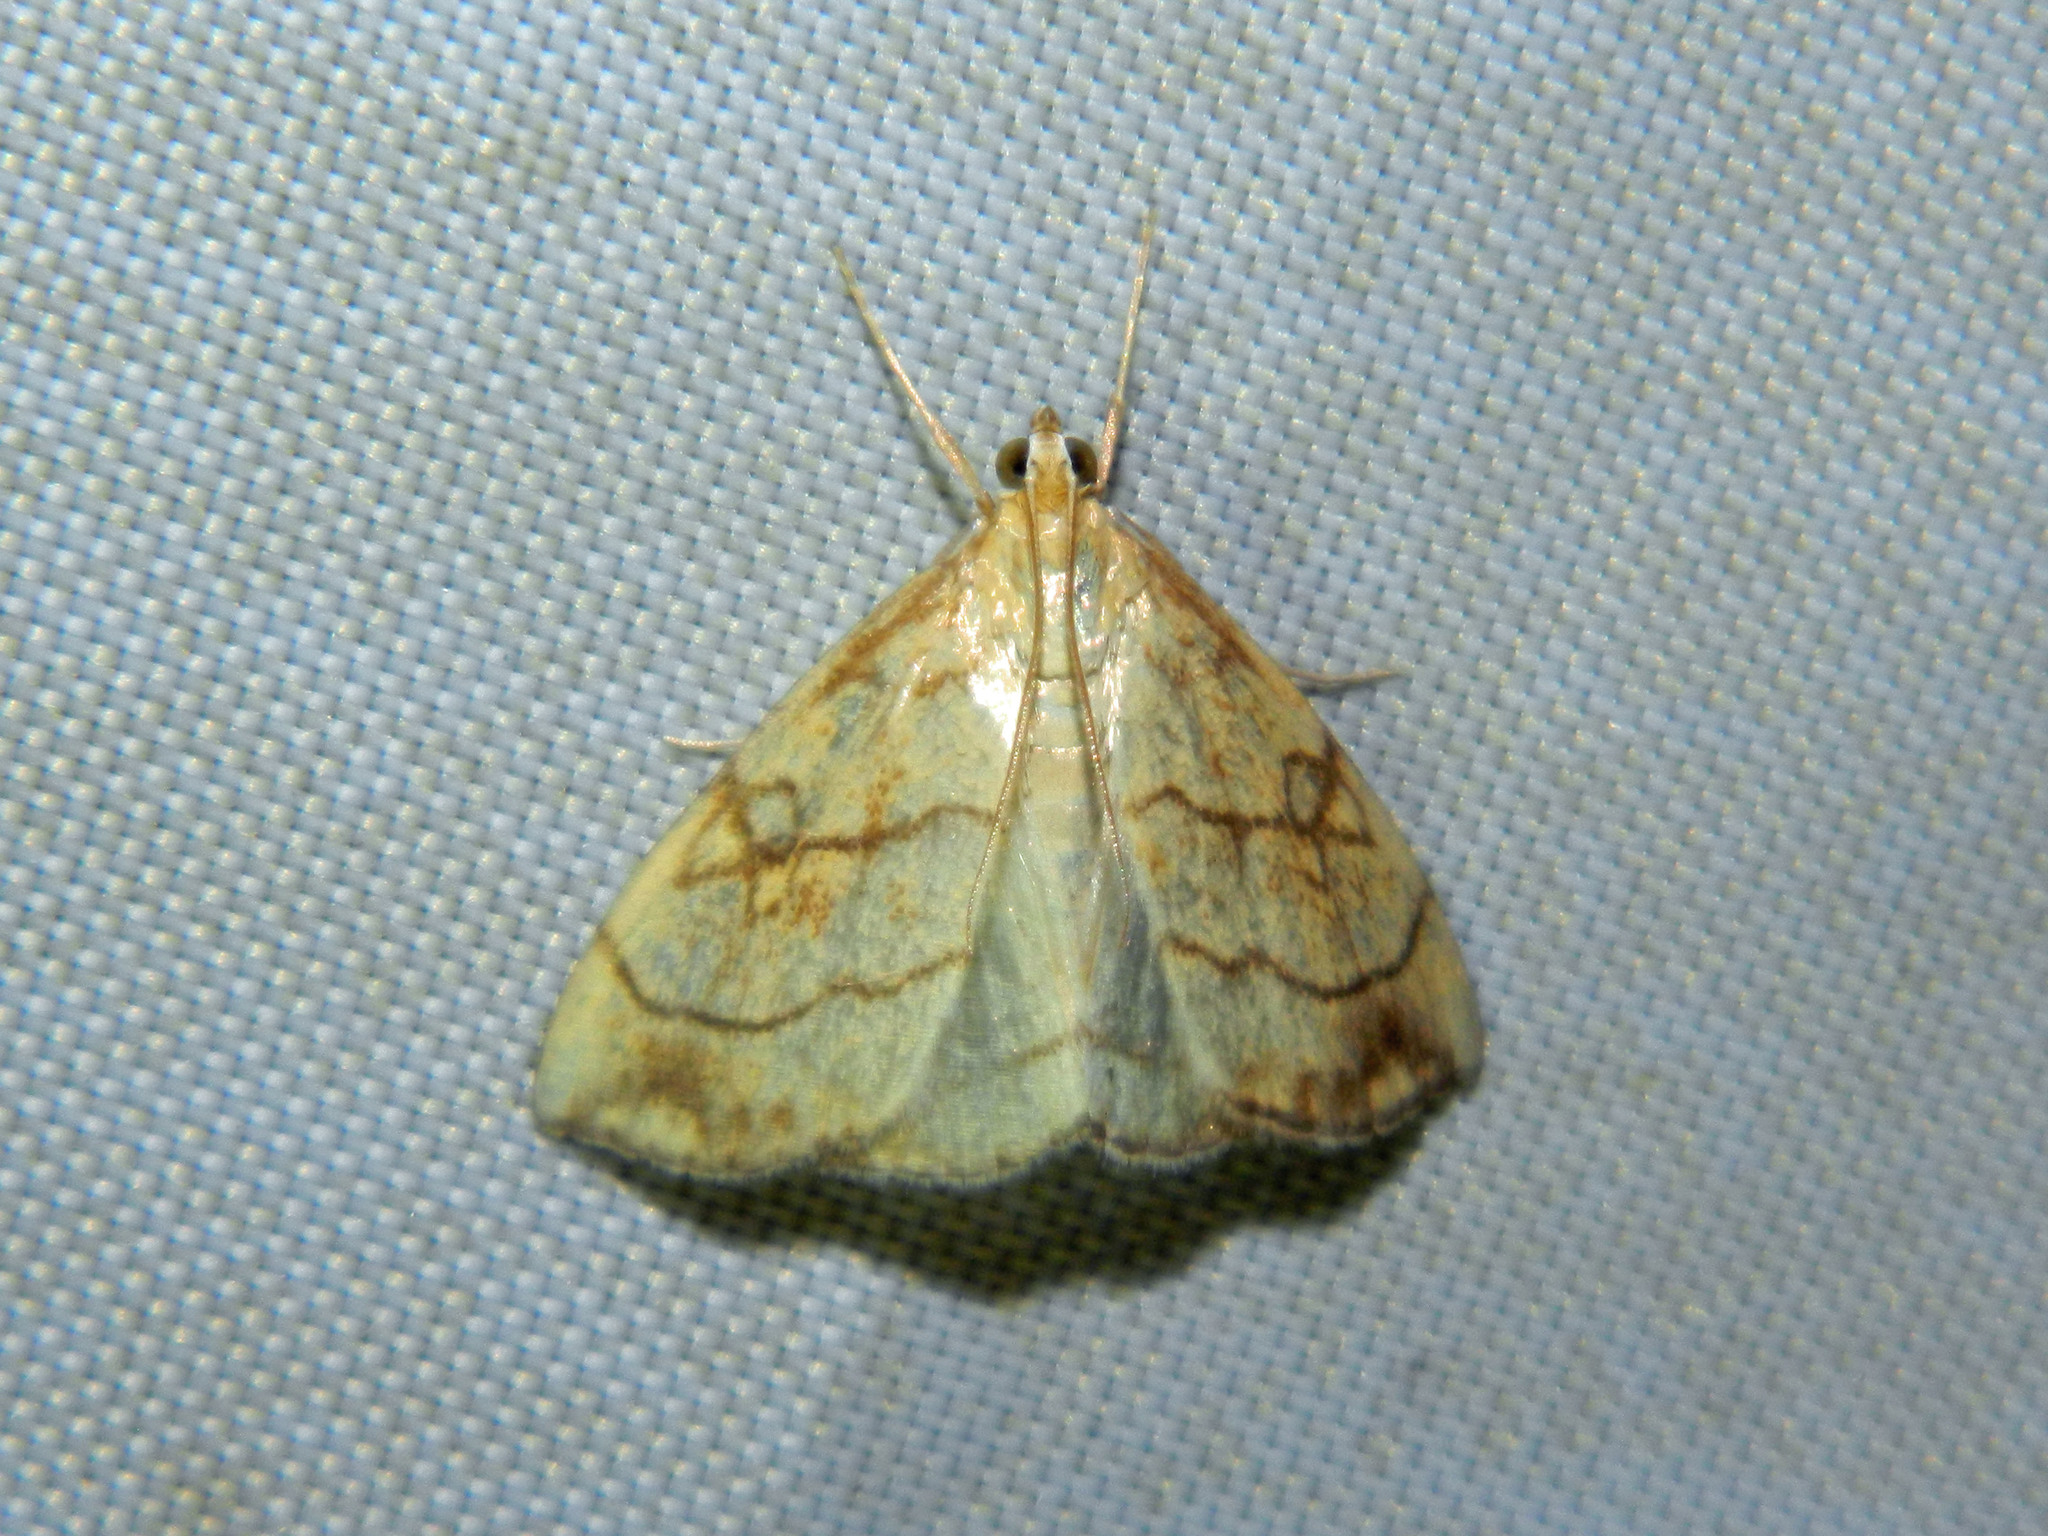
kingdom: Animalia
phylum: Arthropoda
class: Insecta
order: Lepidoptera
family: Crambidae
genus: Evergestis
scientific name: Evergestis pallidata
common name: Chequered pearl
